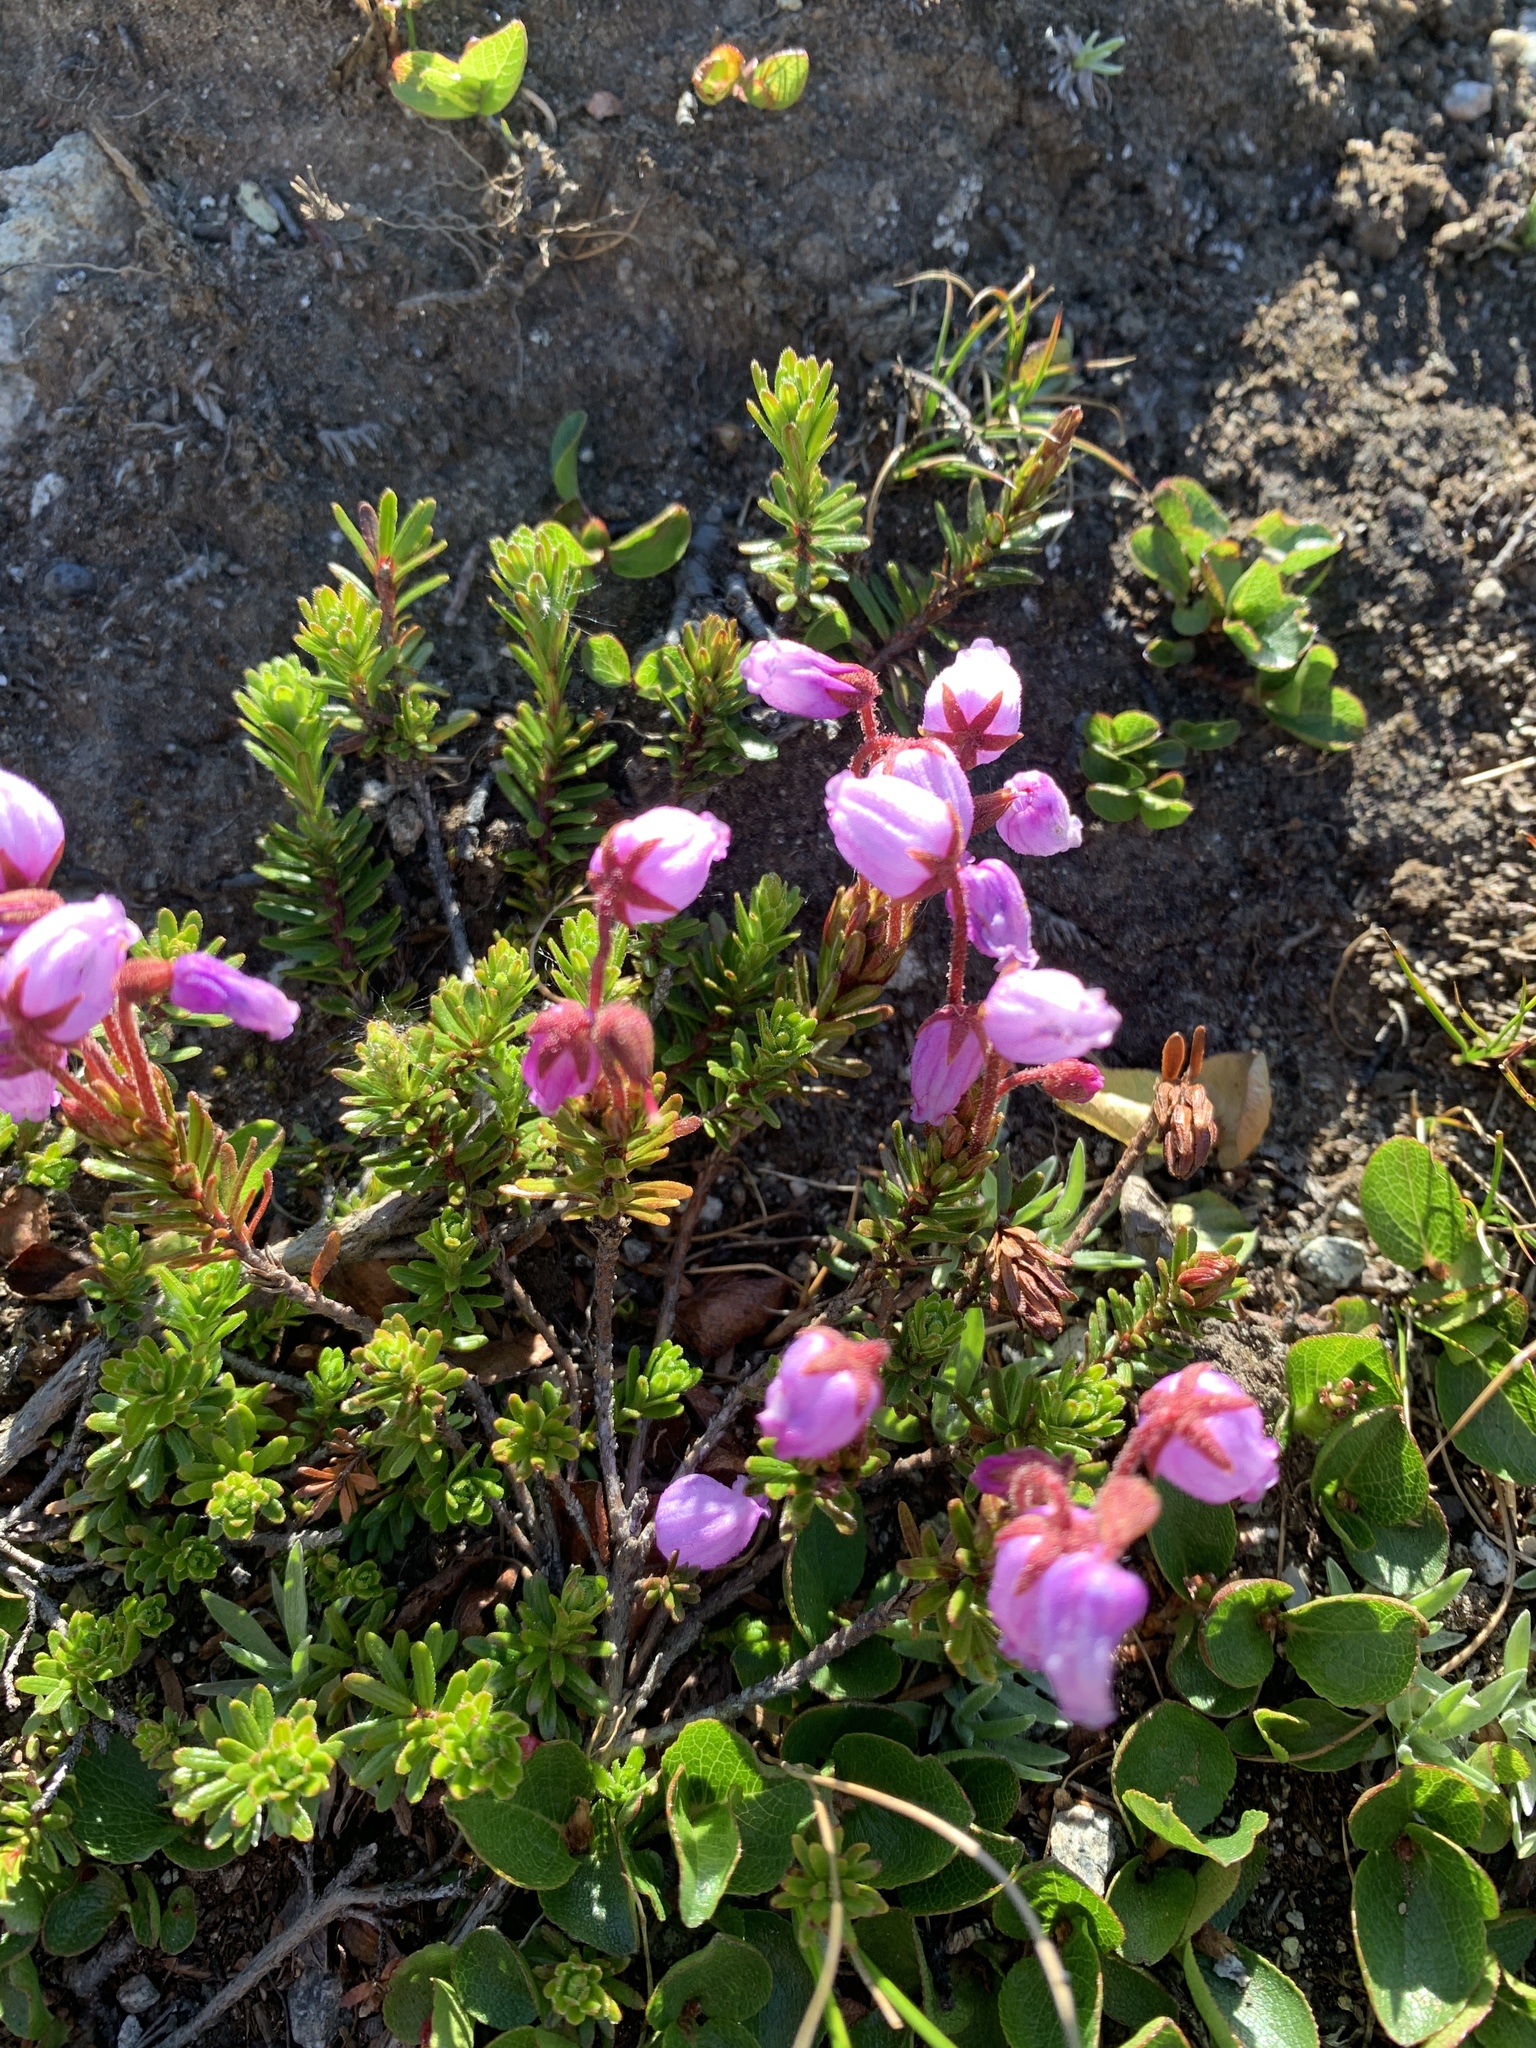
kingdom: Plantae
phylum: Tracheophyta
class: Magnoliopsida
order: Ericales
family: Ericaceae
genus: Phyllodoce
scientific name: Phyllodoce caerulea
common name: Blue heath
